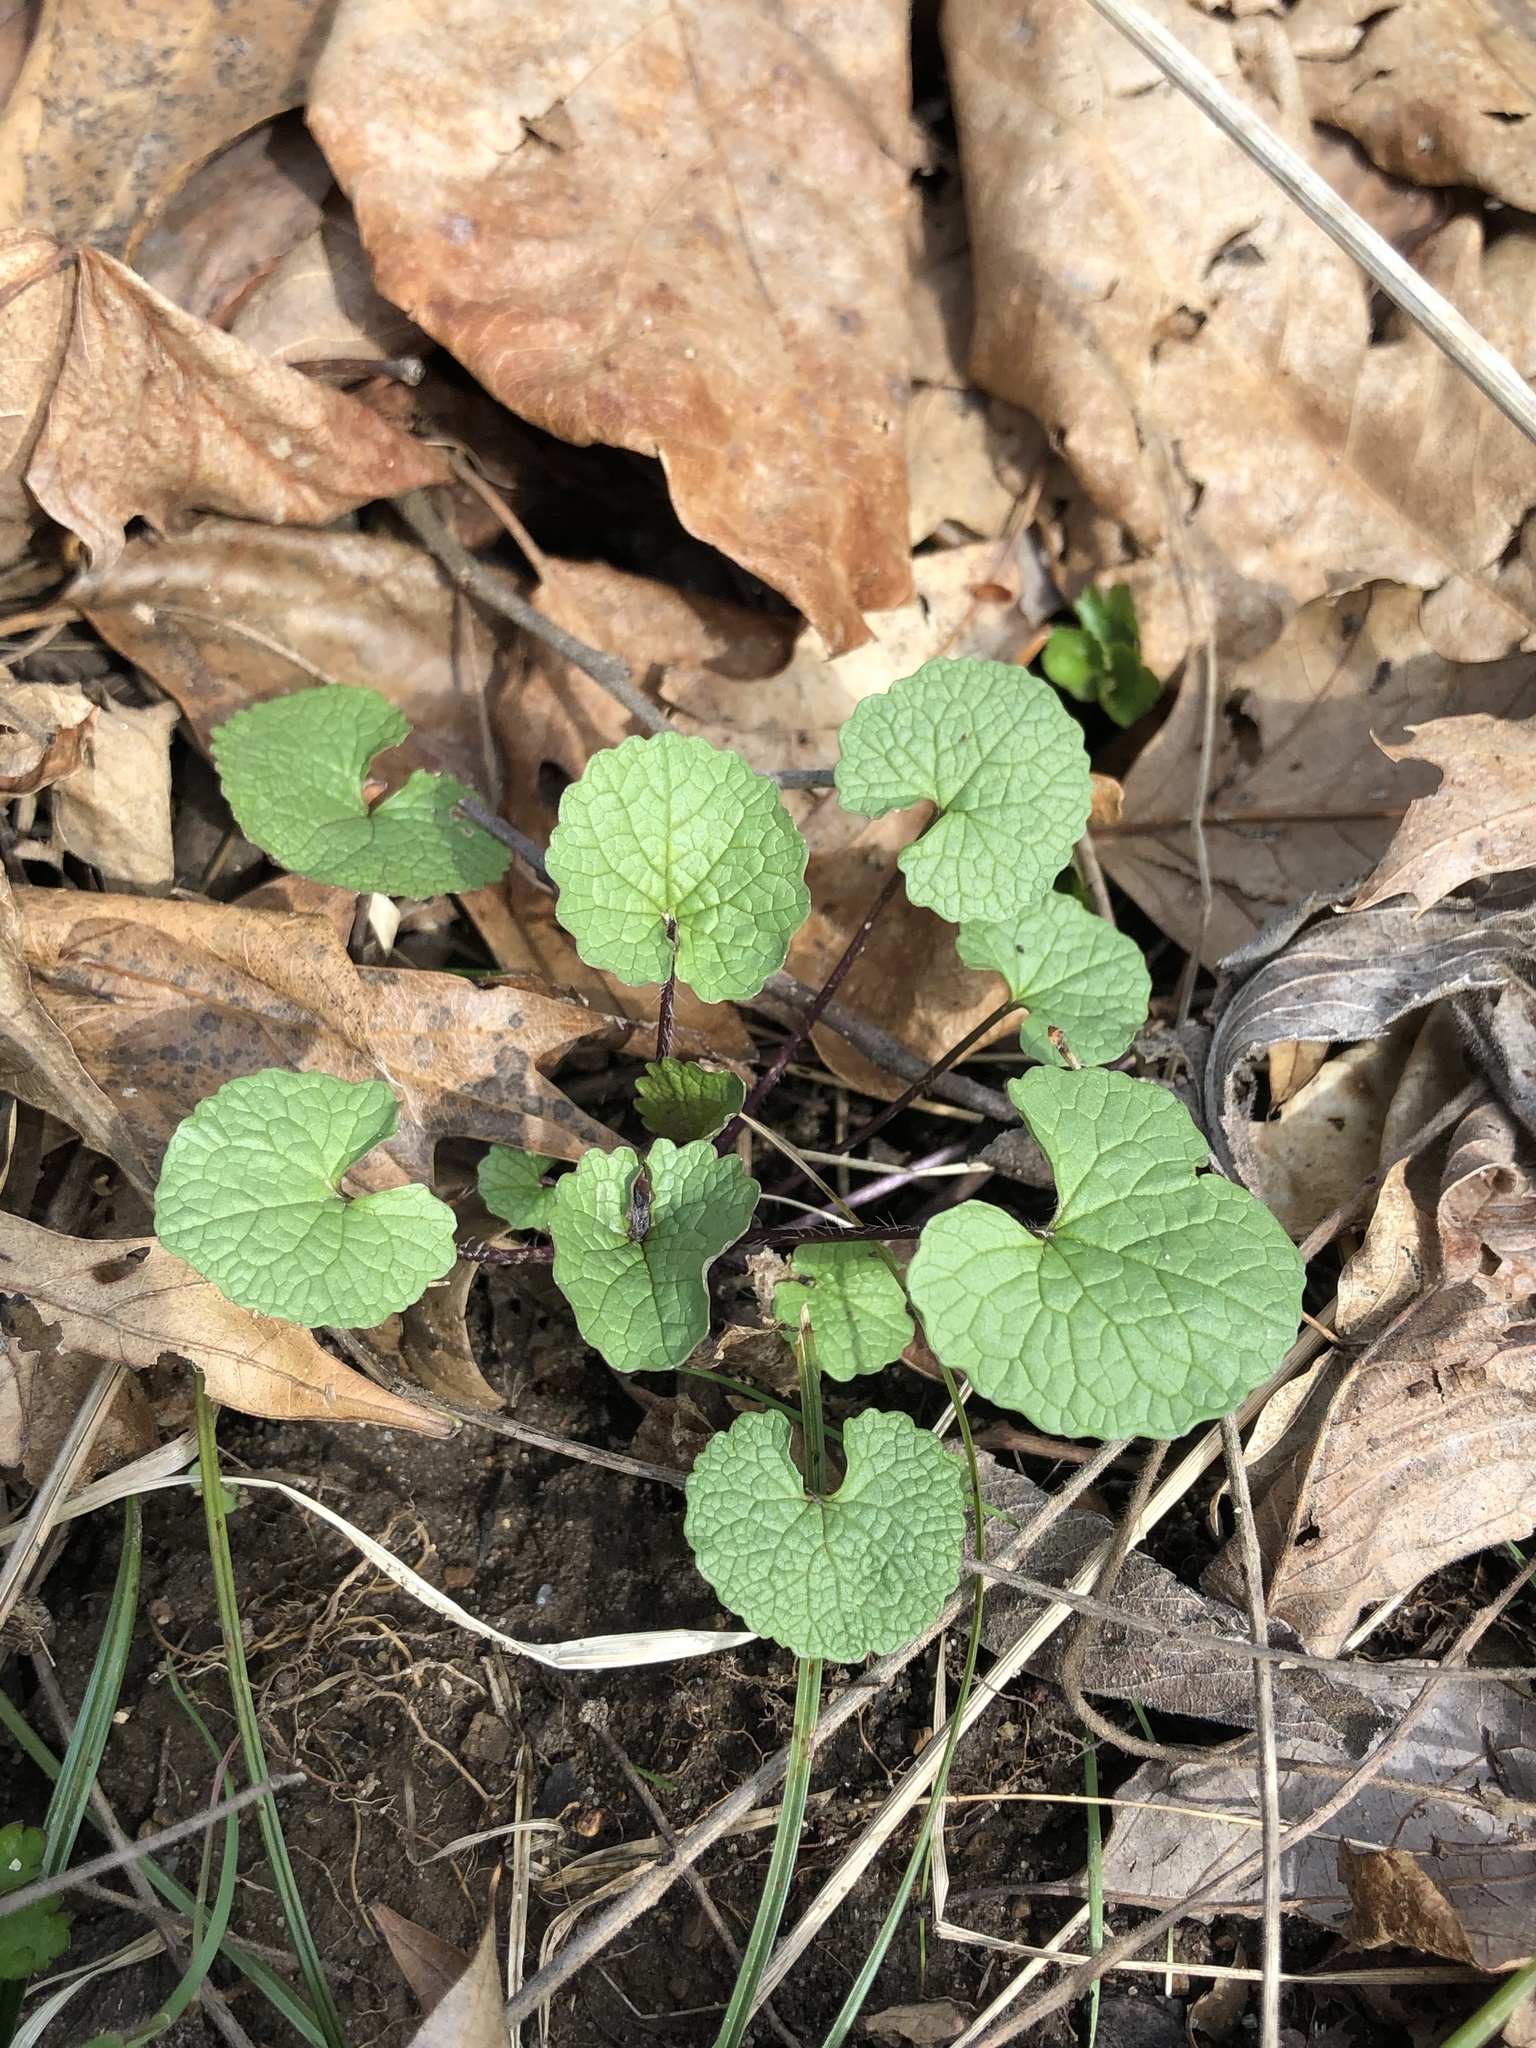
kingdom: Plantae
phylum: Tracheophyta
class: Magnoliopsida
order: Brassicales
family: Brassicaceae
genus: Alliaria
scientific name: Alliaria petiolata
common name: Garlic mustard
